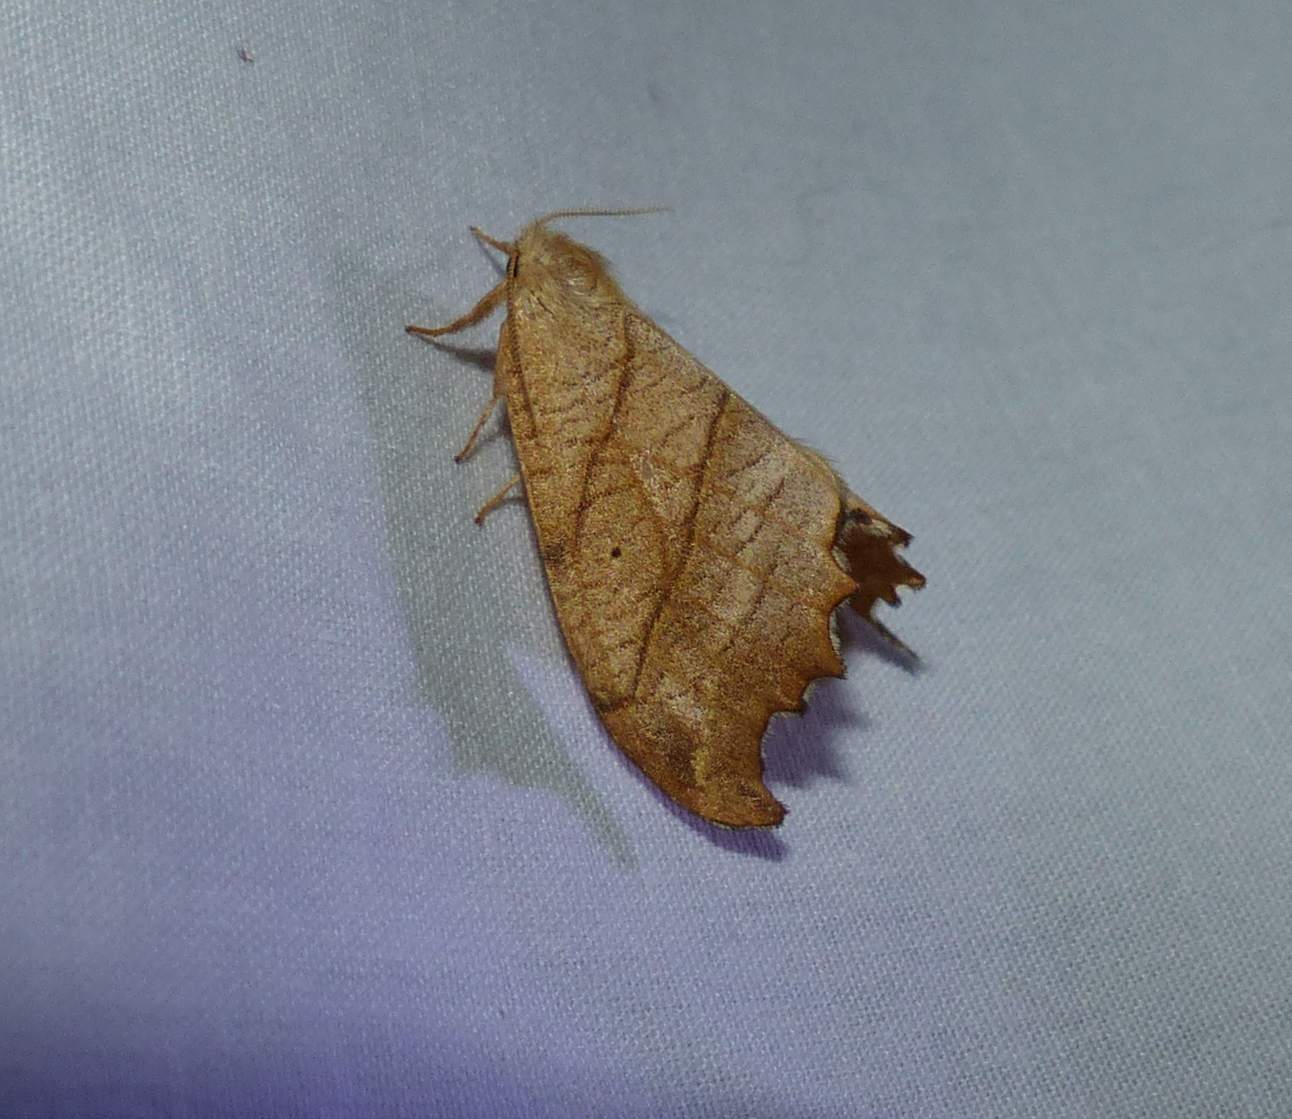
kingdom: Animalia
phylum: Arthropoda
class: Insecta
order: Lepidoptera
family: Drepanidae
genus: Falcaria
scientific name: Falcaria bilineata
